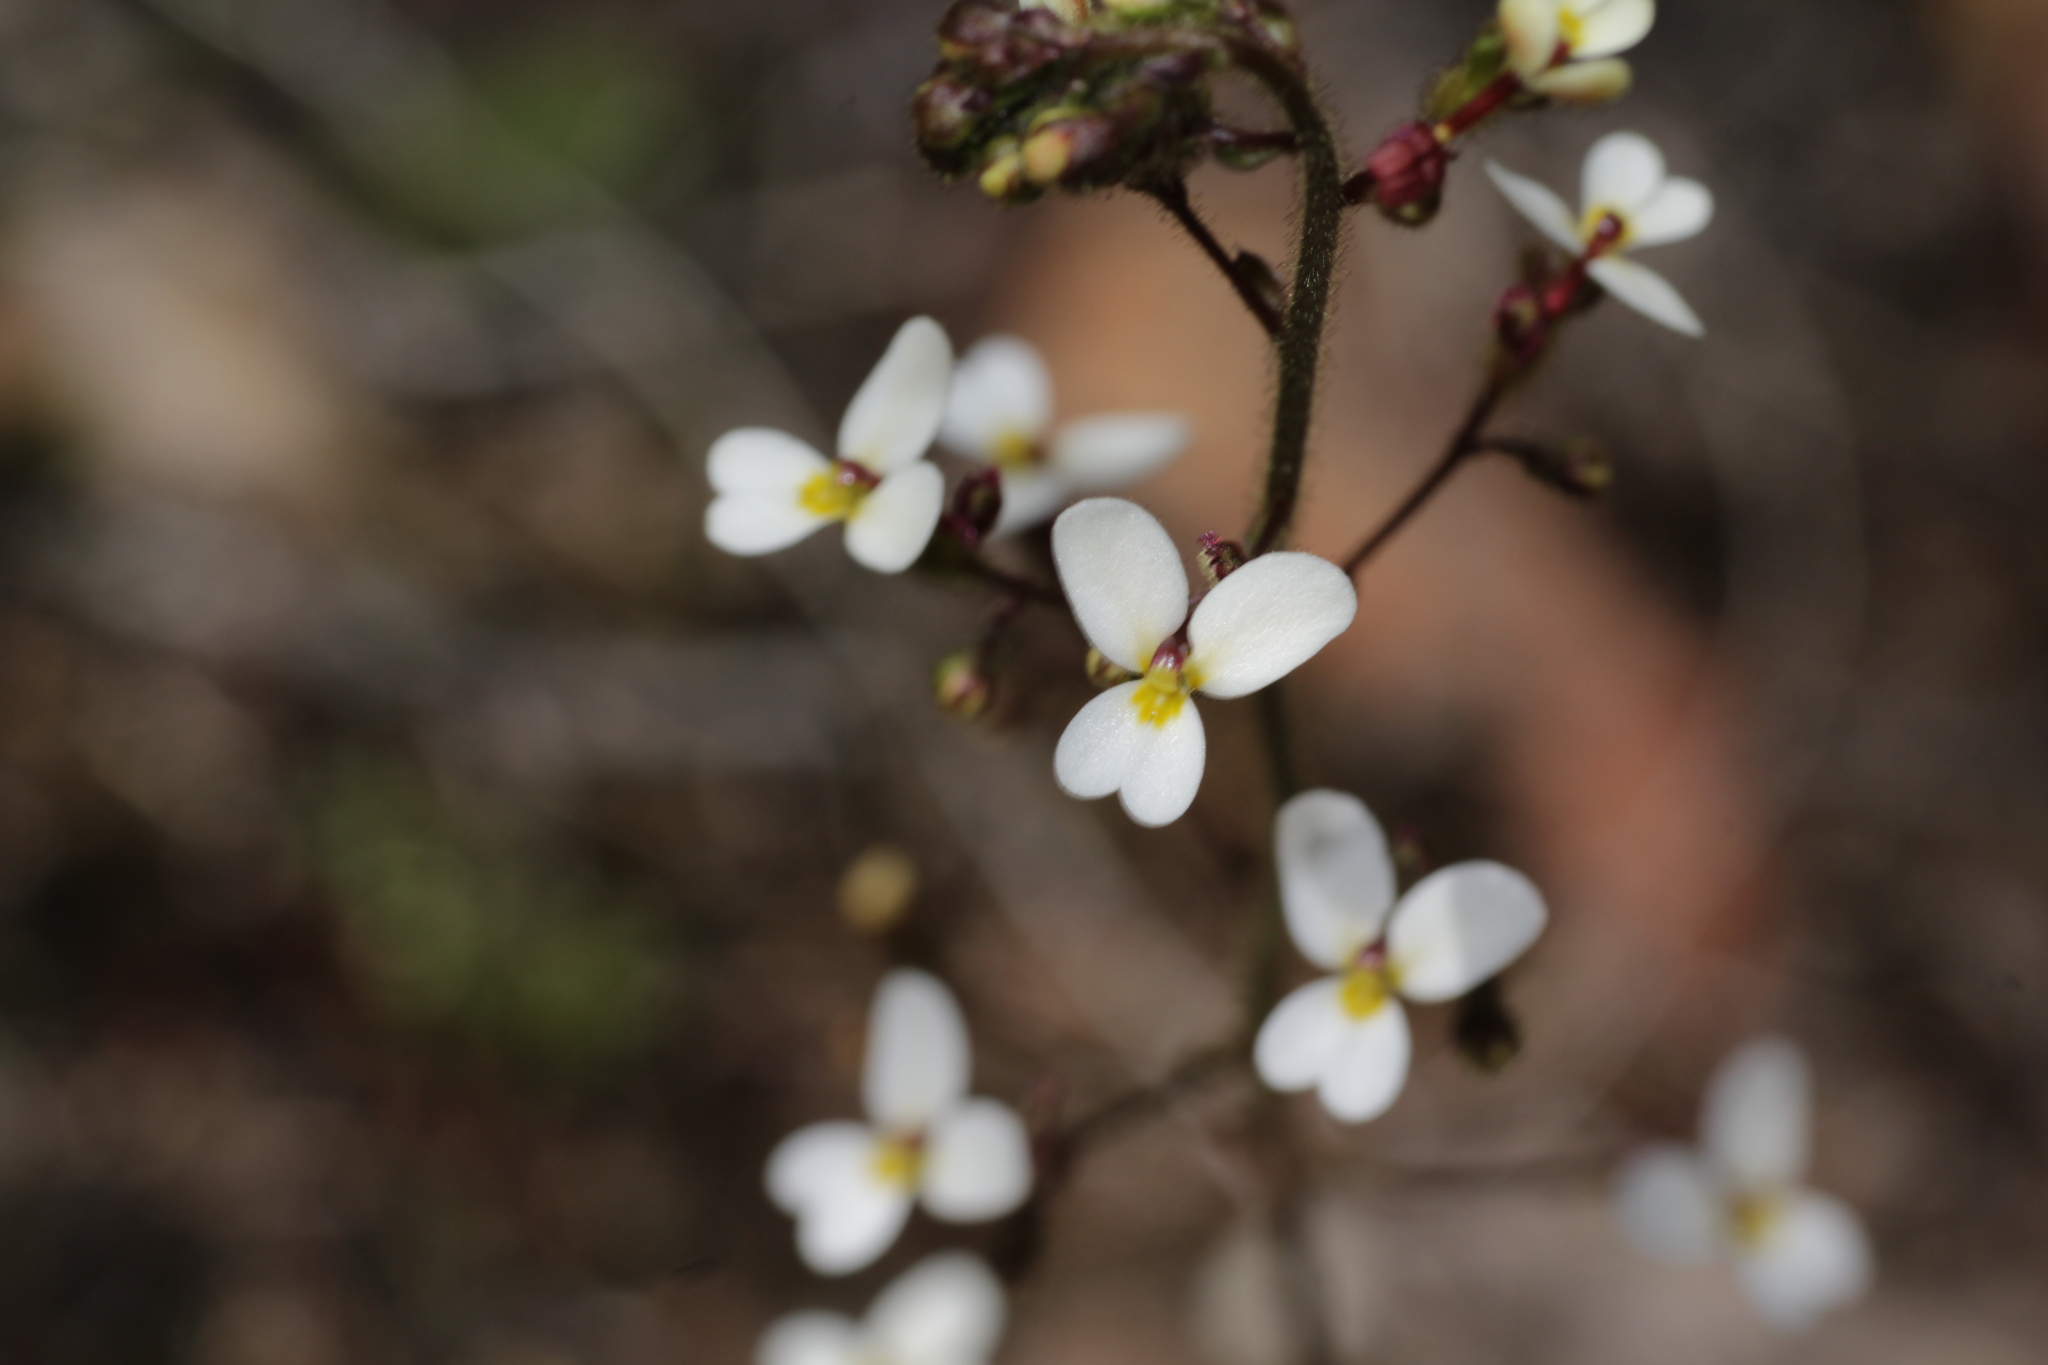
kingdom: Plantae
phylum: Tracheophyta
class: Magnoliopsida
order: Asterales
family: Stylidiaceae
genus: Stylidium
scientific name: Stylidium piliferum
